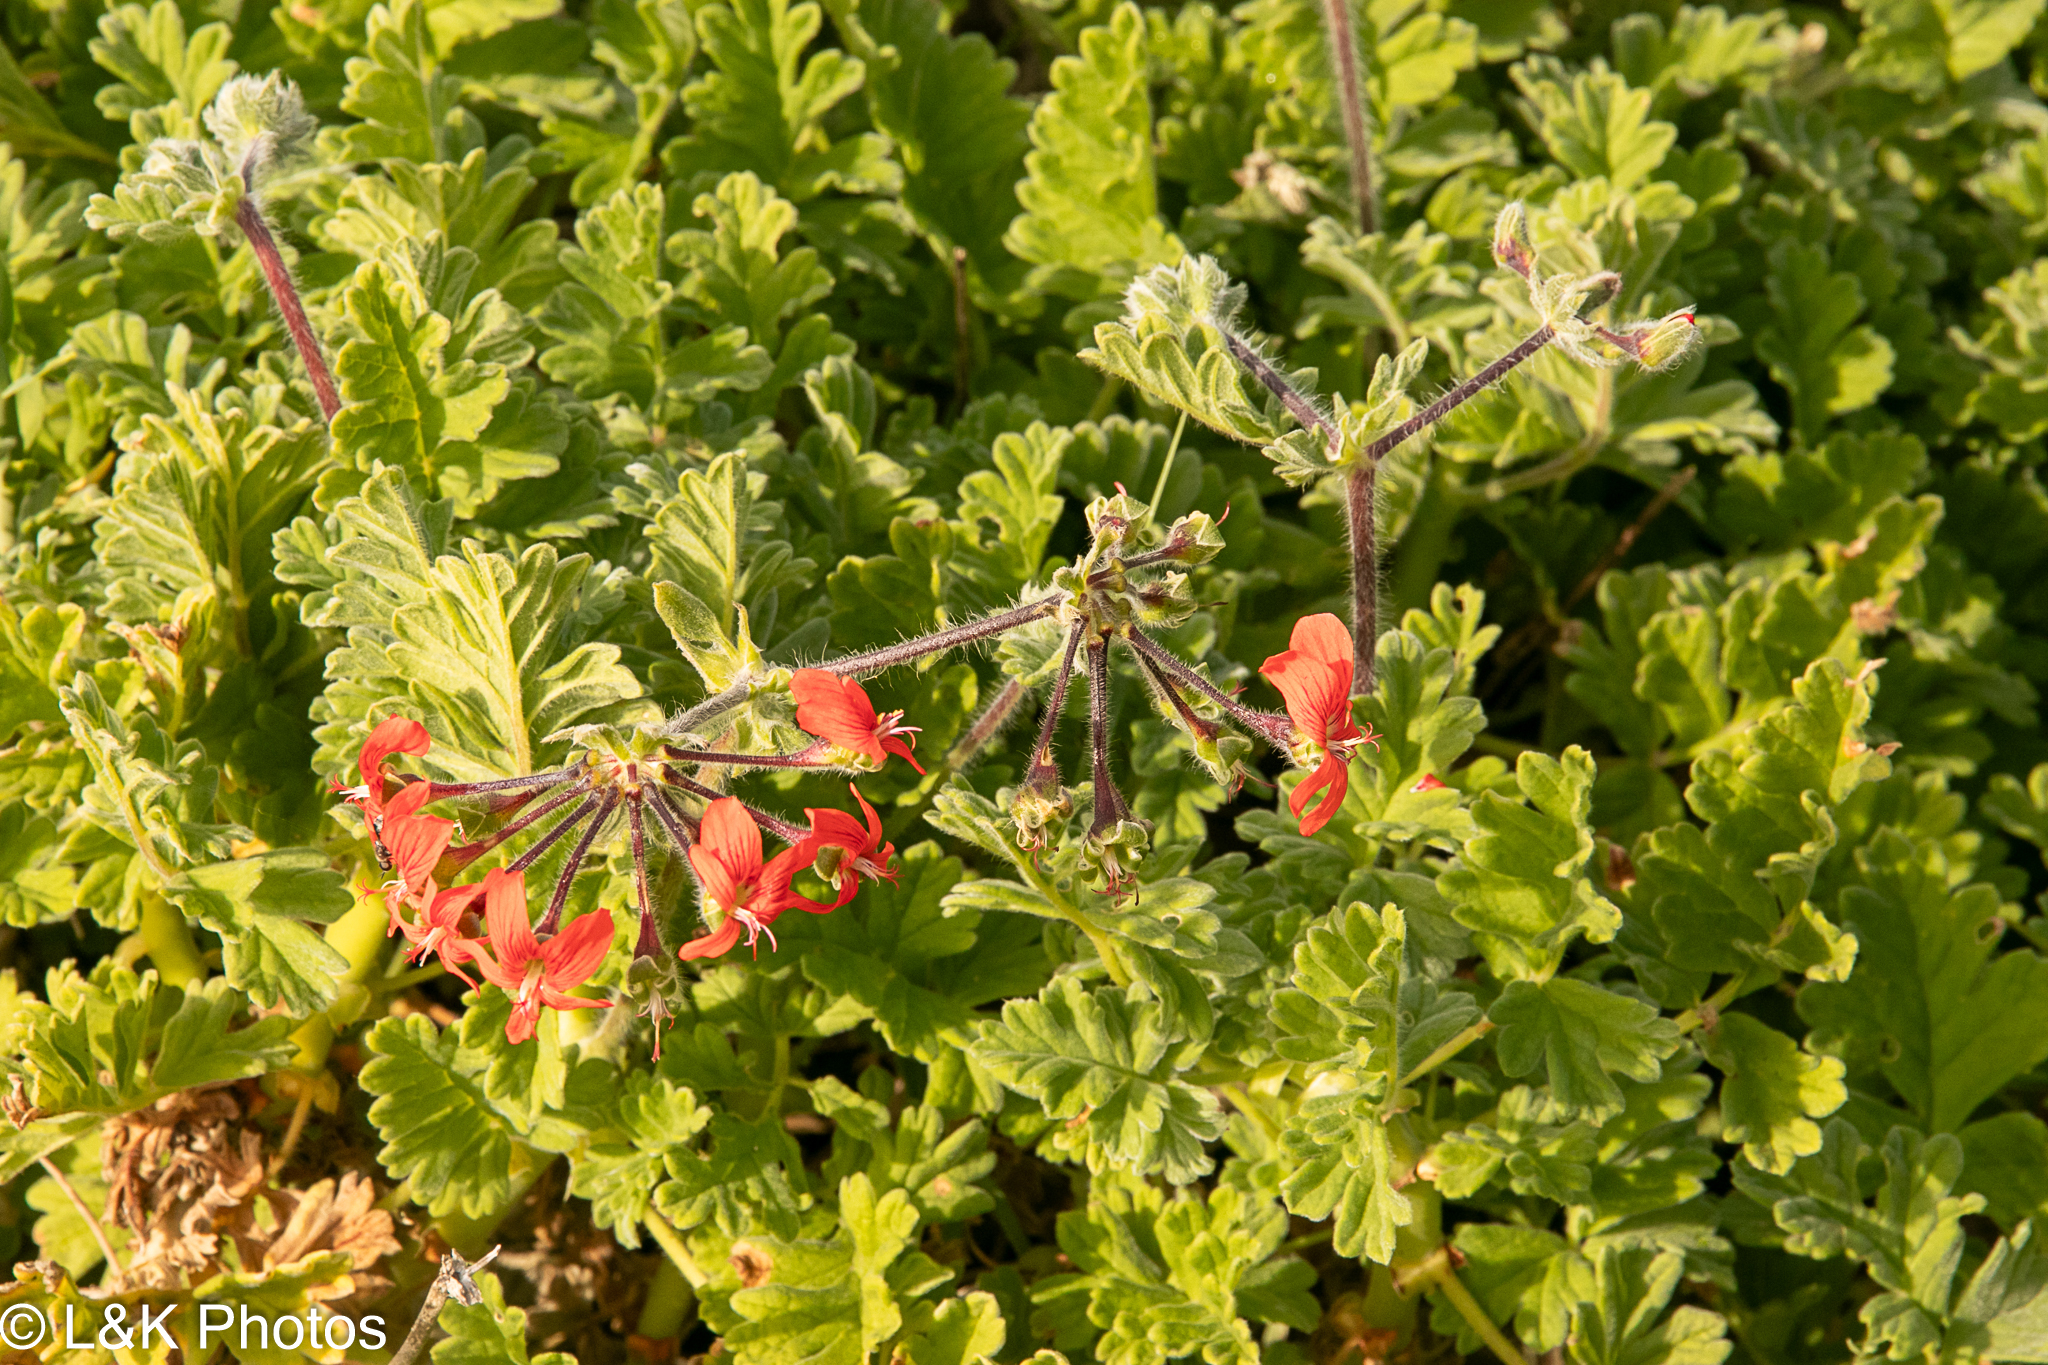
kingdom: Plantae
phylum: Tracheophyta
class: Magnoliopsida
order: Geraniales
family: Geraniaceae
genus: Pelargonium
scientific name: Pelargonium fulgidum
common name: Celandine-leaf pelargonium
